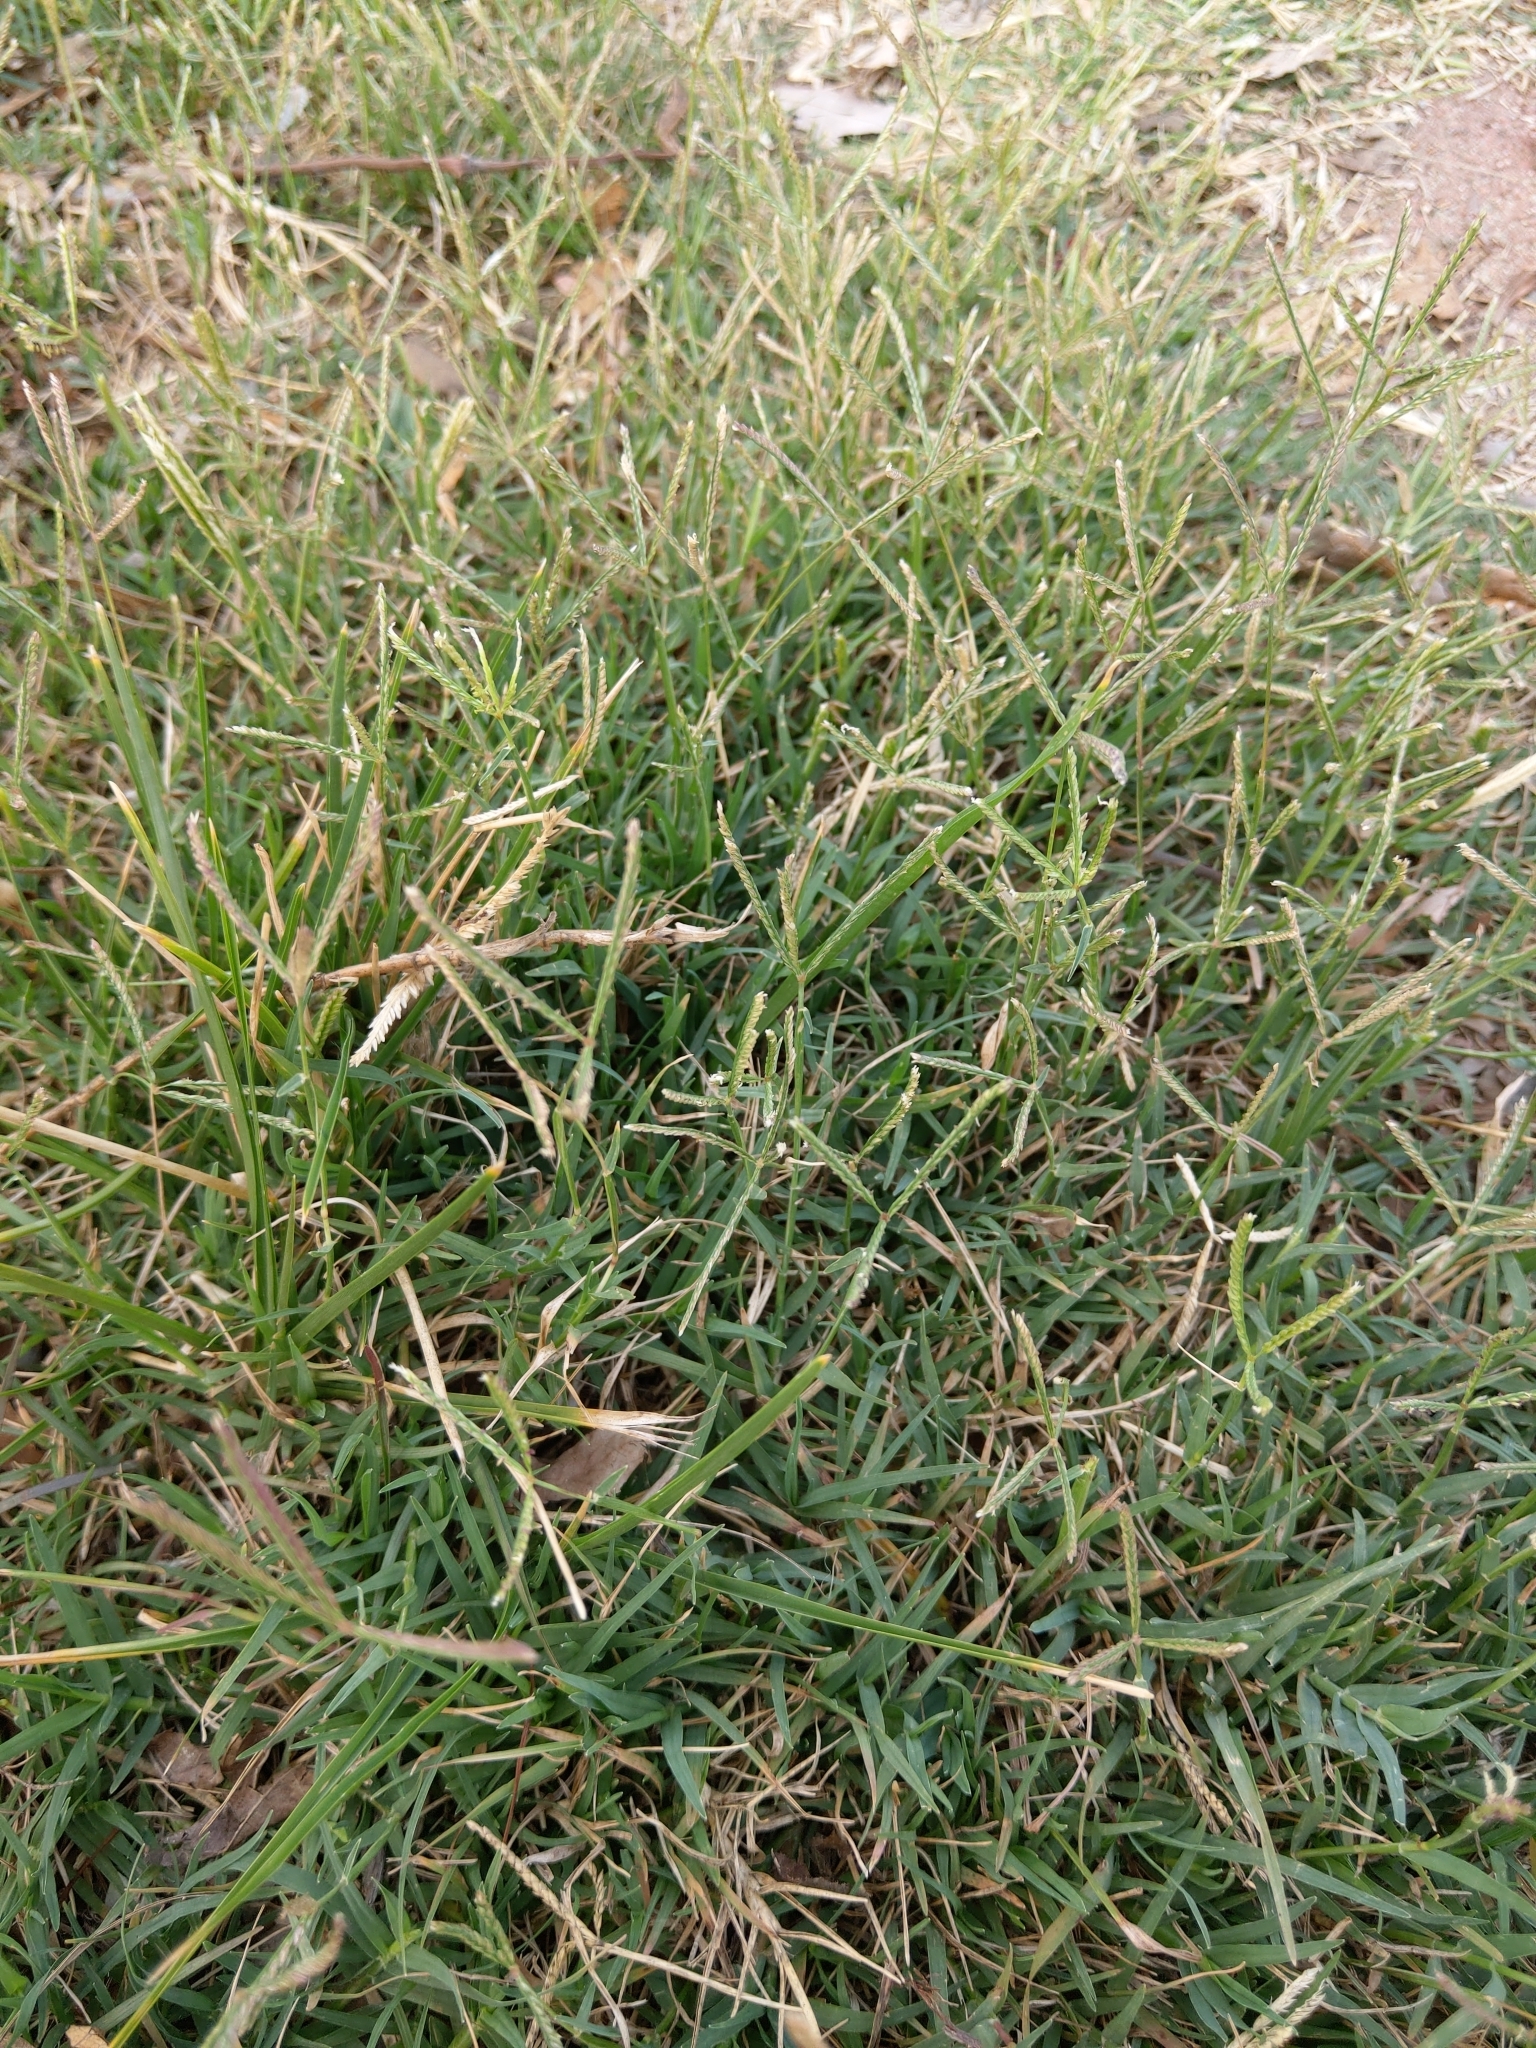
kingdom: Plantae
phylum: Tracheophyta
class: Liliopsida
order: Poales
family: Poaceae
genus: Cynodon
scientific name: Cynodon dactylon
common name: Bermuda grass
